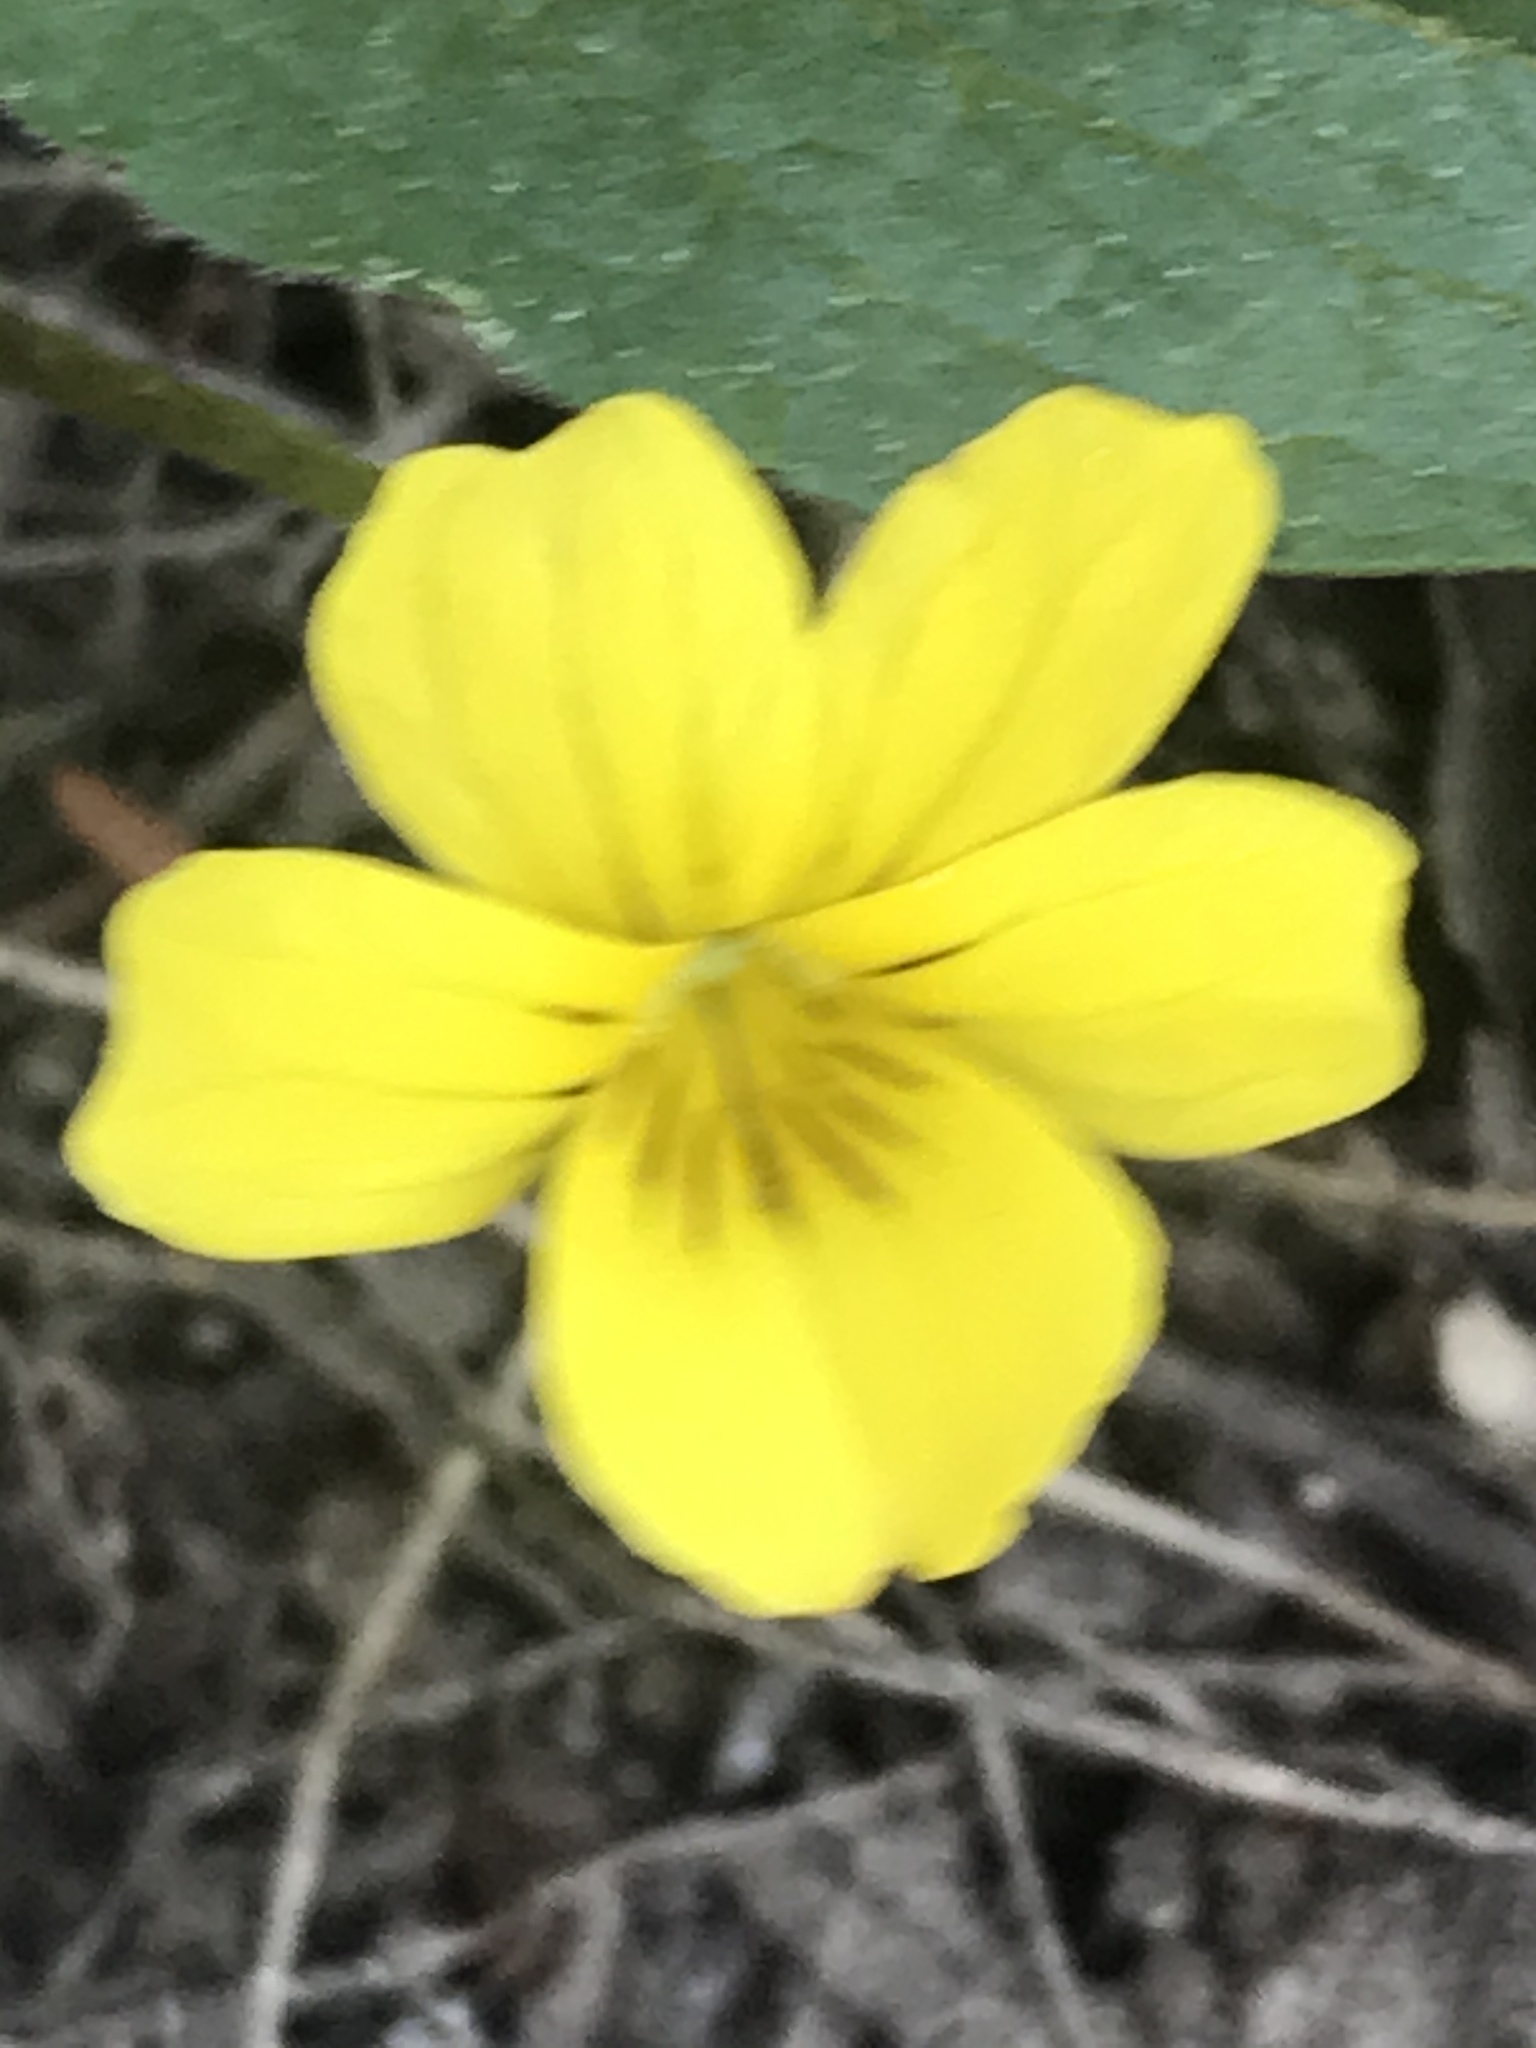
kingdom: Plantae
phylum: Tracheophyta
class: Magnoliopsida
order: Malpighiales
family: Violaceae
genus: Viola
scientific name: Viola nuttallii
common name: Yellow prairie violet
